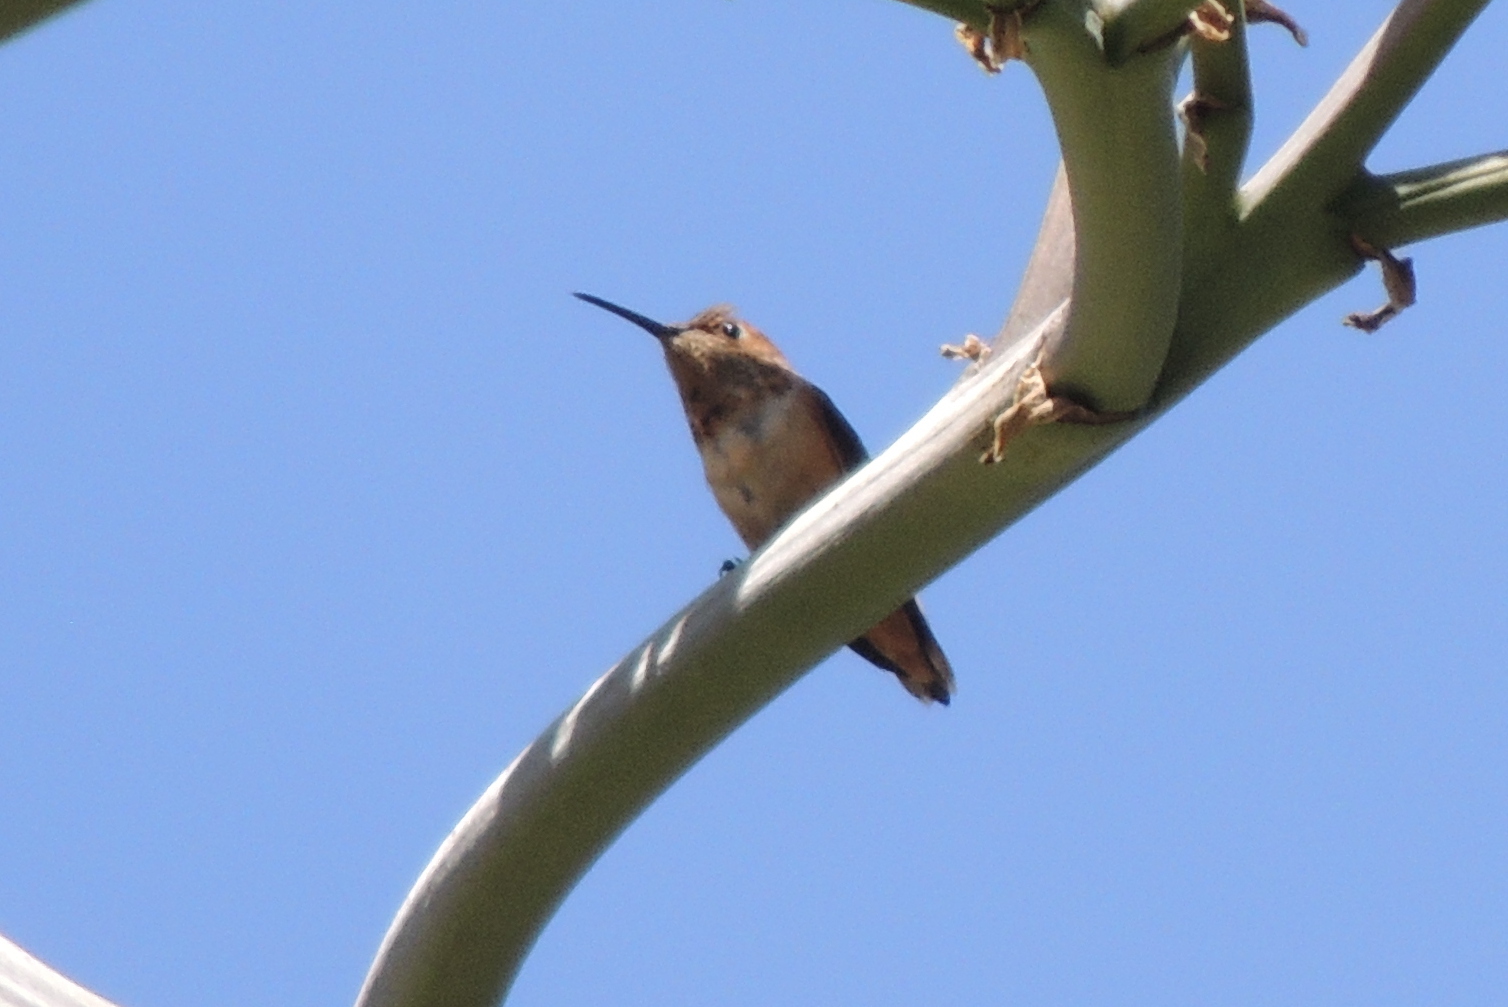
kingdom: Animalia
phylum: Chordata
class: Aves
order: Apodiformes
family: Trochilidae
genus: Selasphorus
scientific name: Selasphorus
